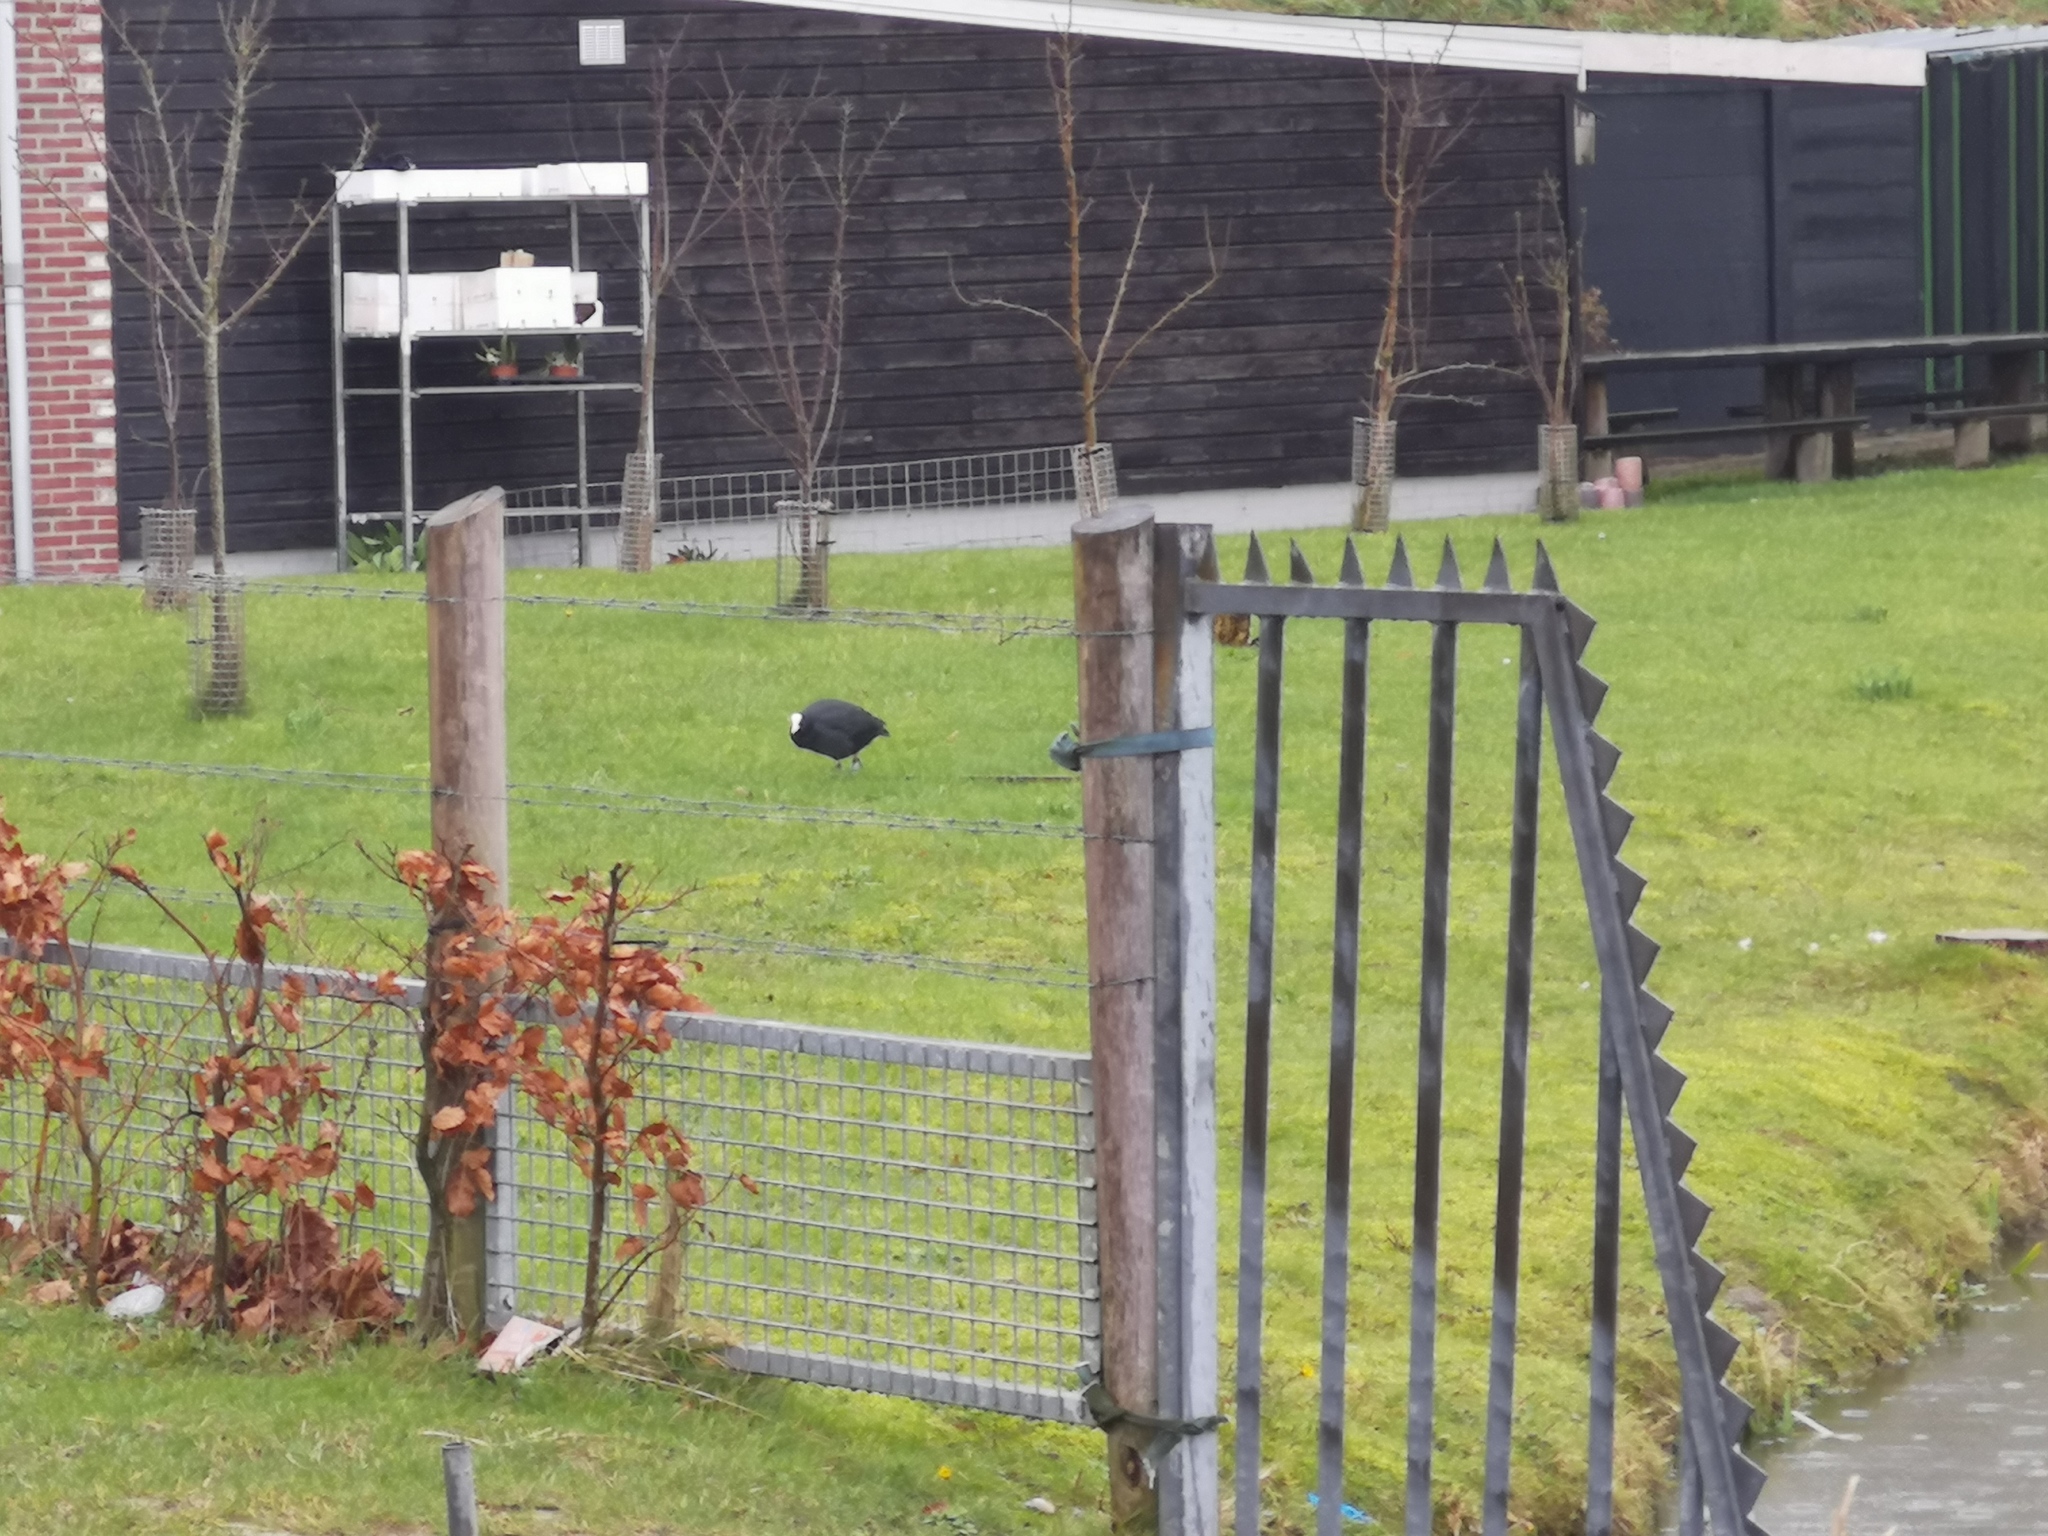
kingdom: Animalia
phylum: Chordata
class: Aves
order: Gruiformes
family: Rallidae
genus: Fulica
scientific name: Fulica atra
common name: Eurasian coot
